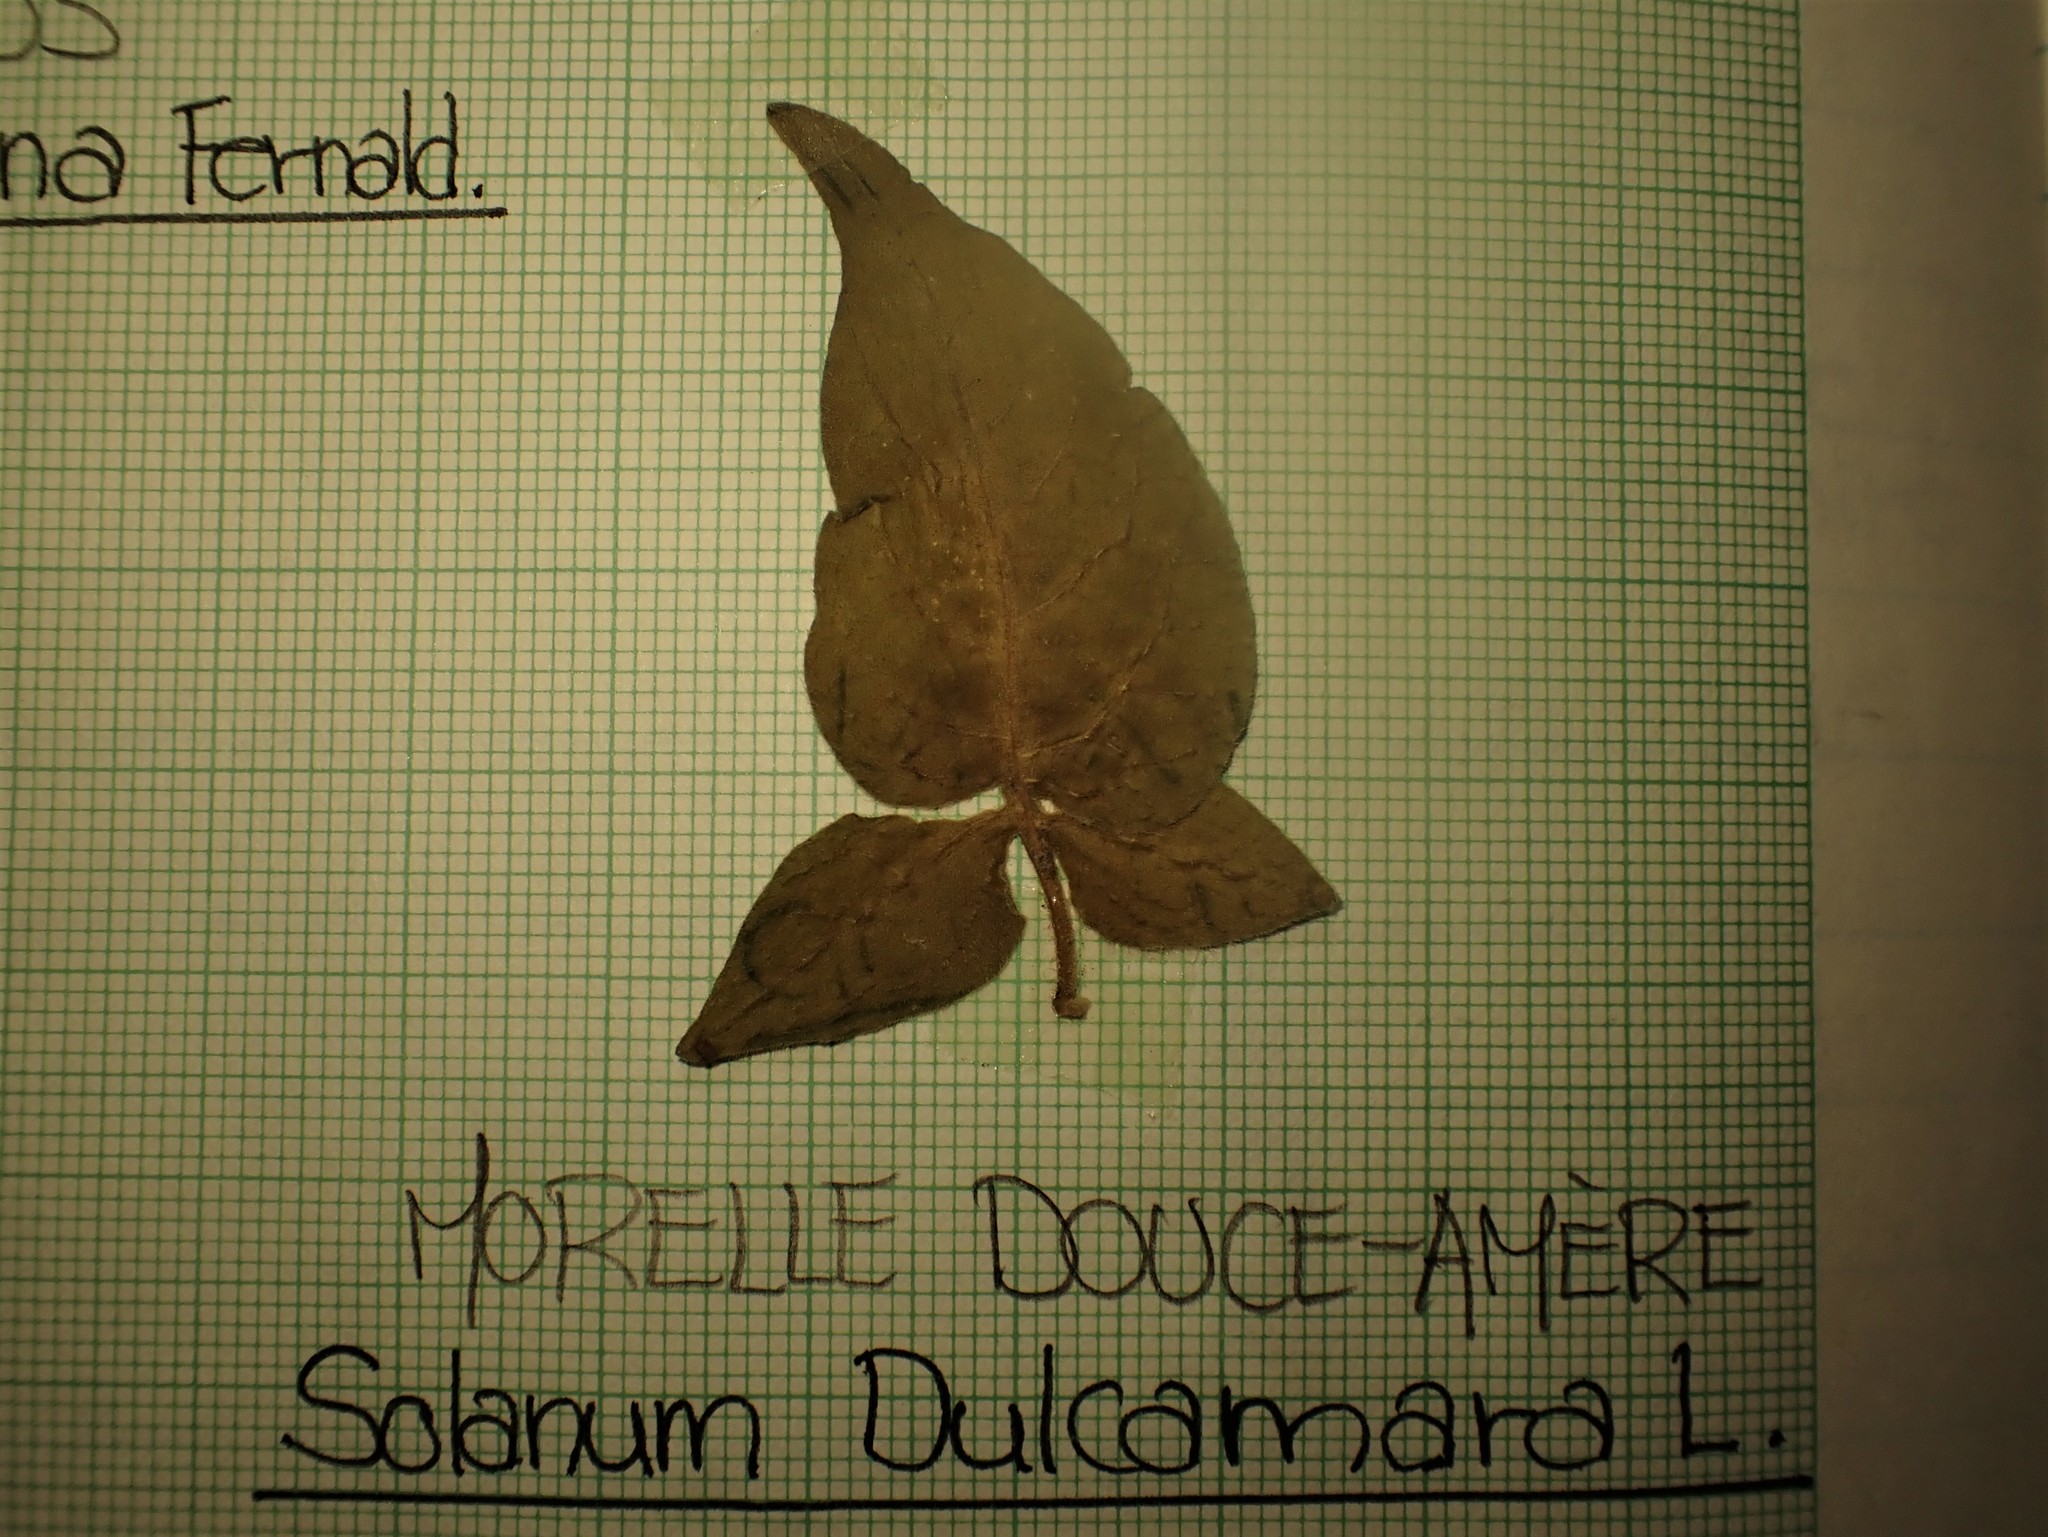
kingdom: Plantae
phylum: Tracheophyta
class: Magnoliopsida
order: Solanales
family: Solanaceae
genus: Solanum
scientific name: Solanum dulcamara
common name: Climbing nightshade
